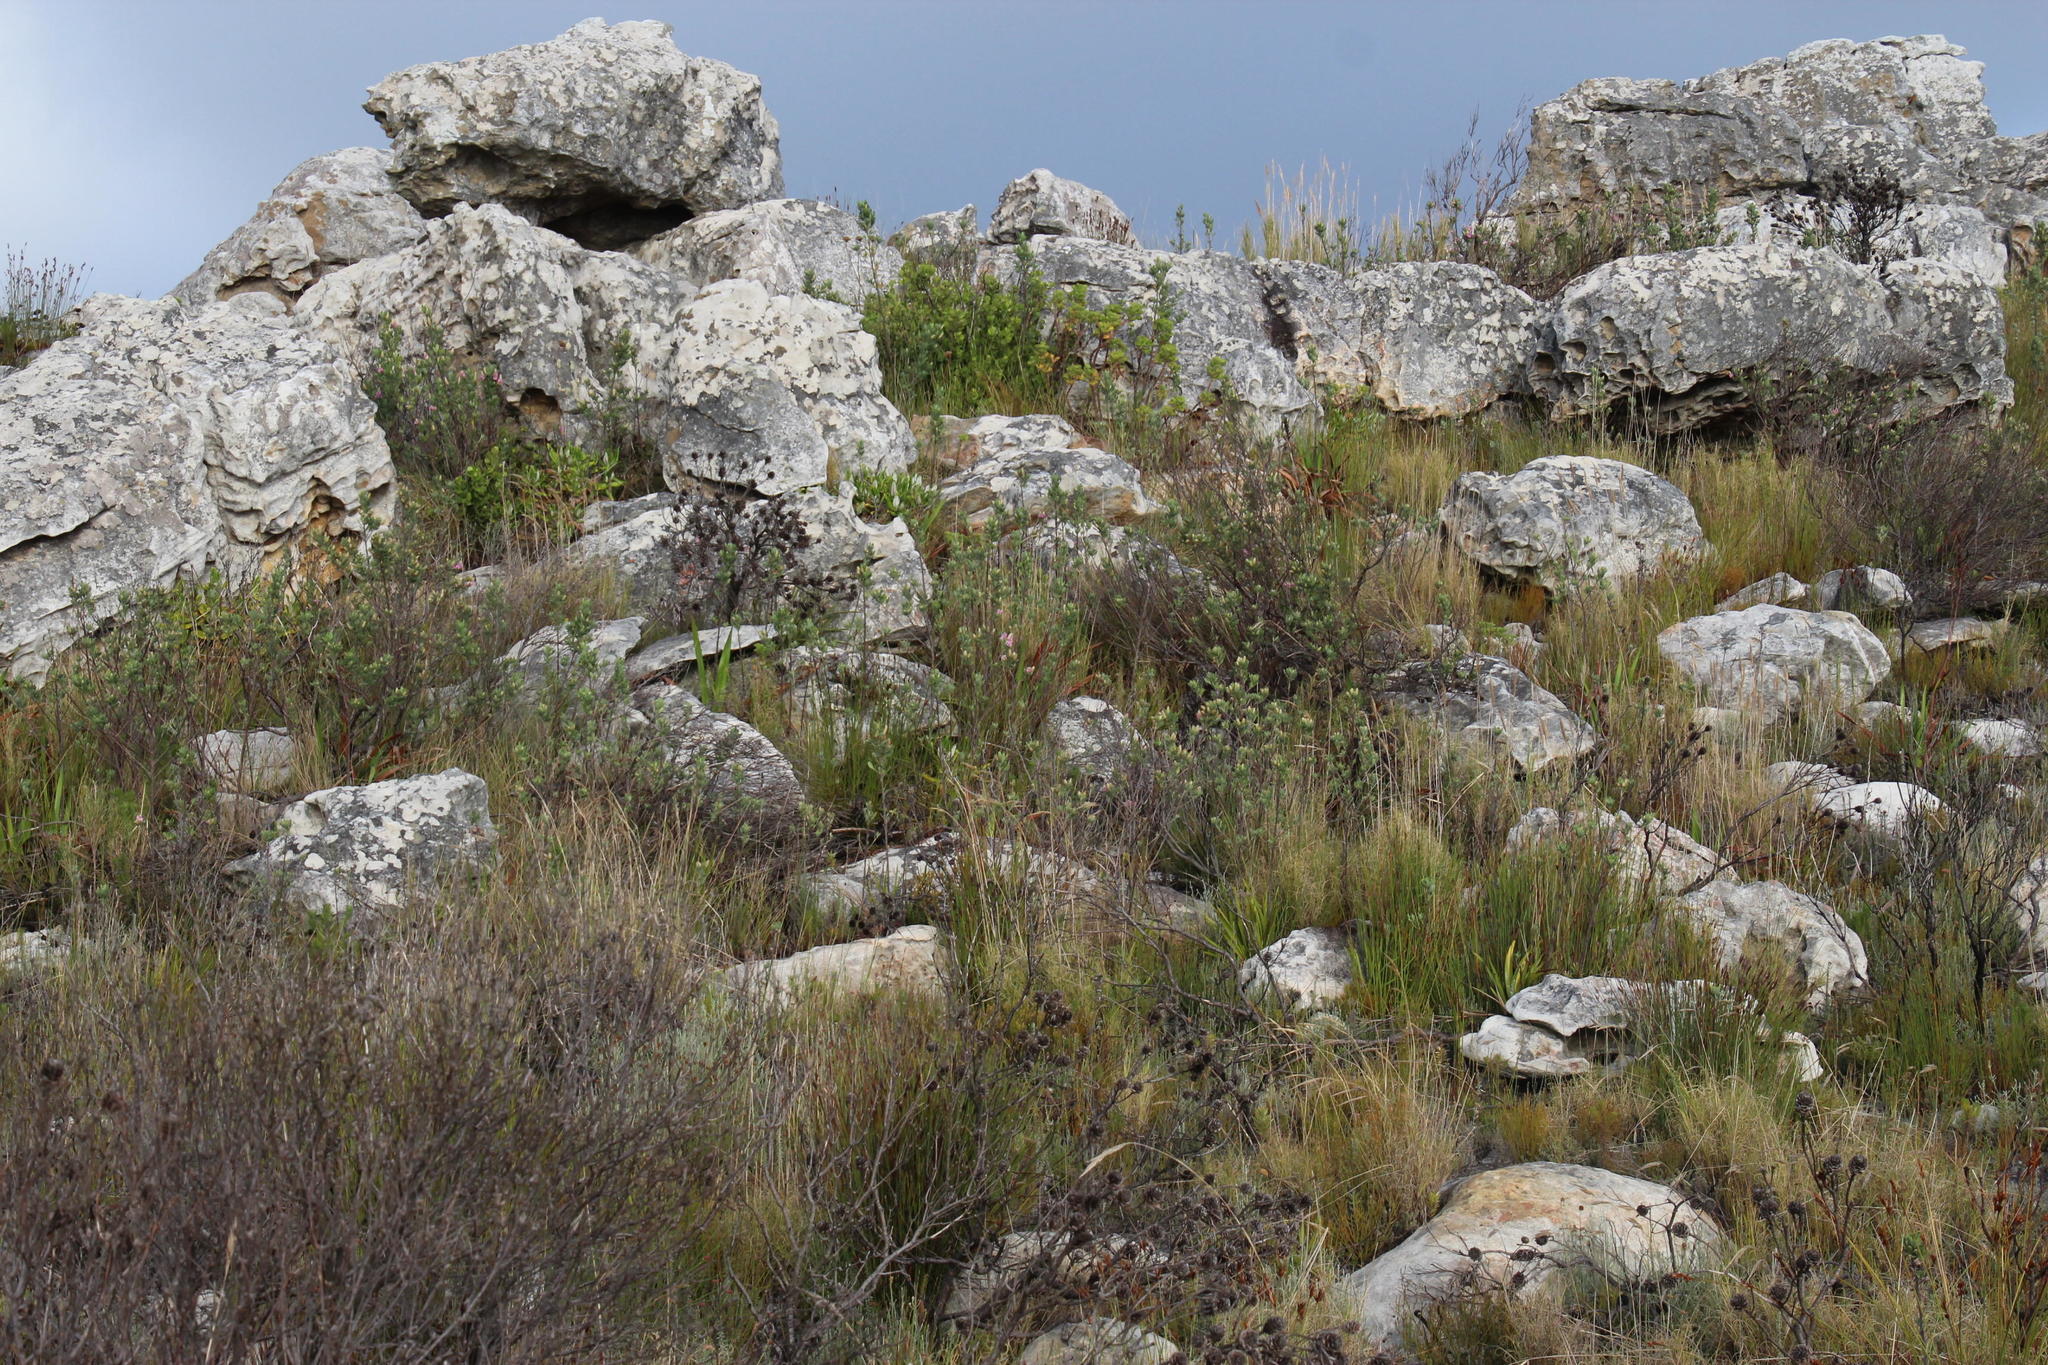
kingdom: Plantae
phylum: Tracheophyta
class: Magnoliopsida
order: Fabales
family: Fabaceae
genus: Indigofera
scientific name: Indigofera cytisoides
